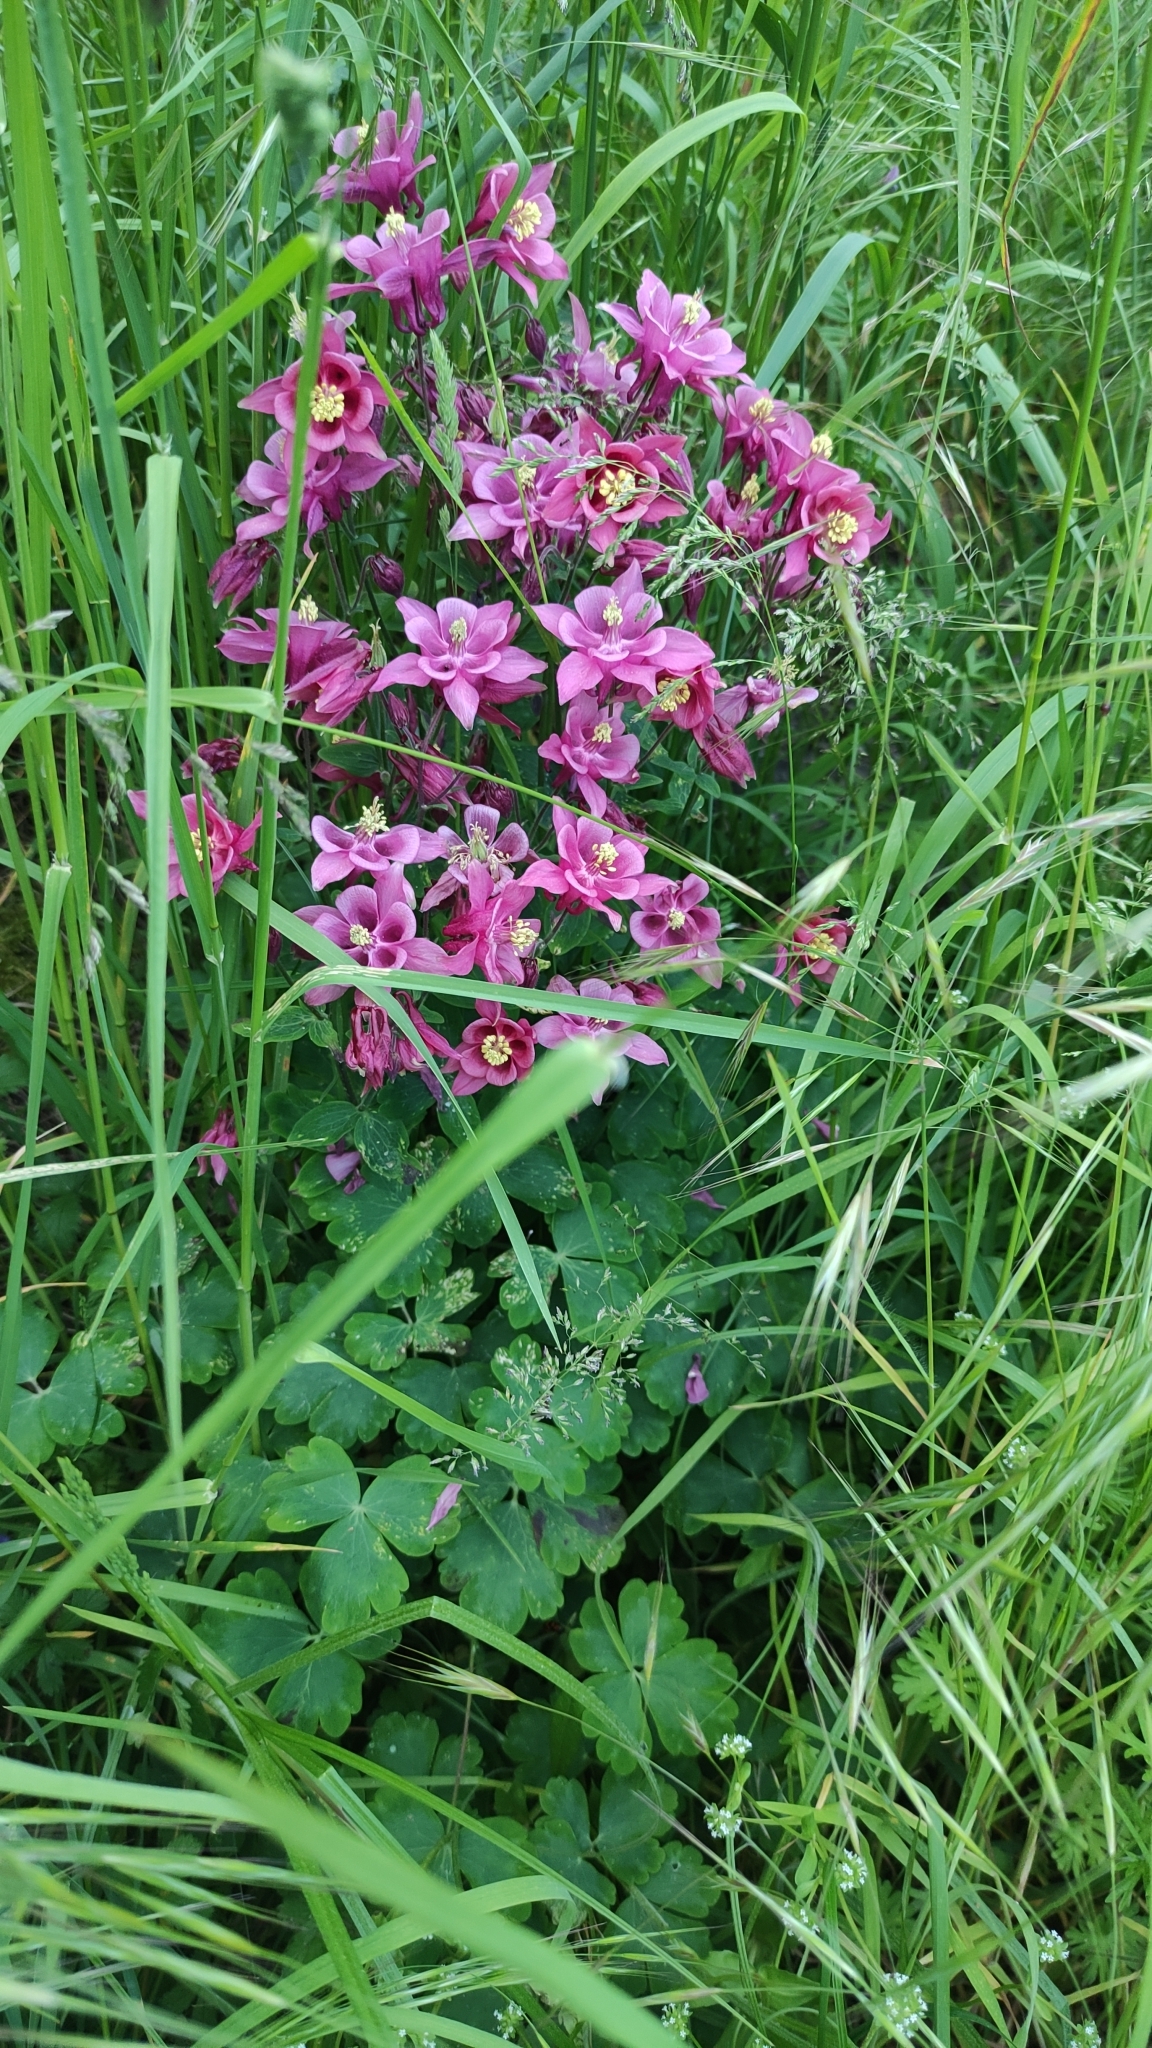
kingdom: Plantae
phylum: Tracheophyta
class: Magnoliopsida
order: Ranunculales
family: Ranunculaceae
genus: Aquilegia
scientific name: Aquilegia vulgaris
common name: Columbine
